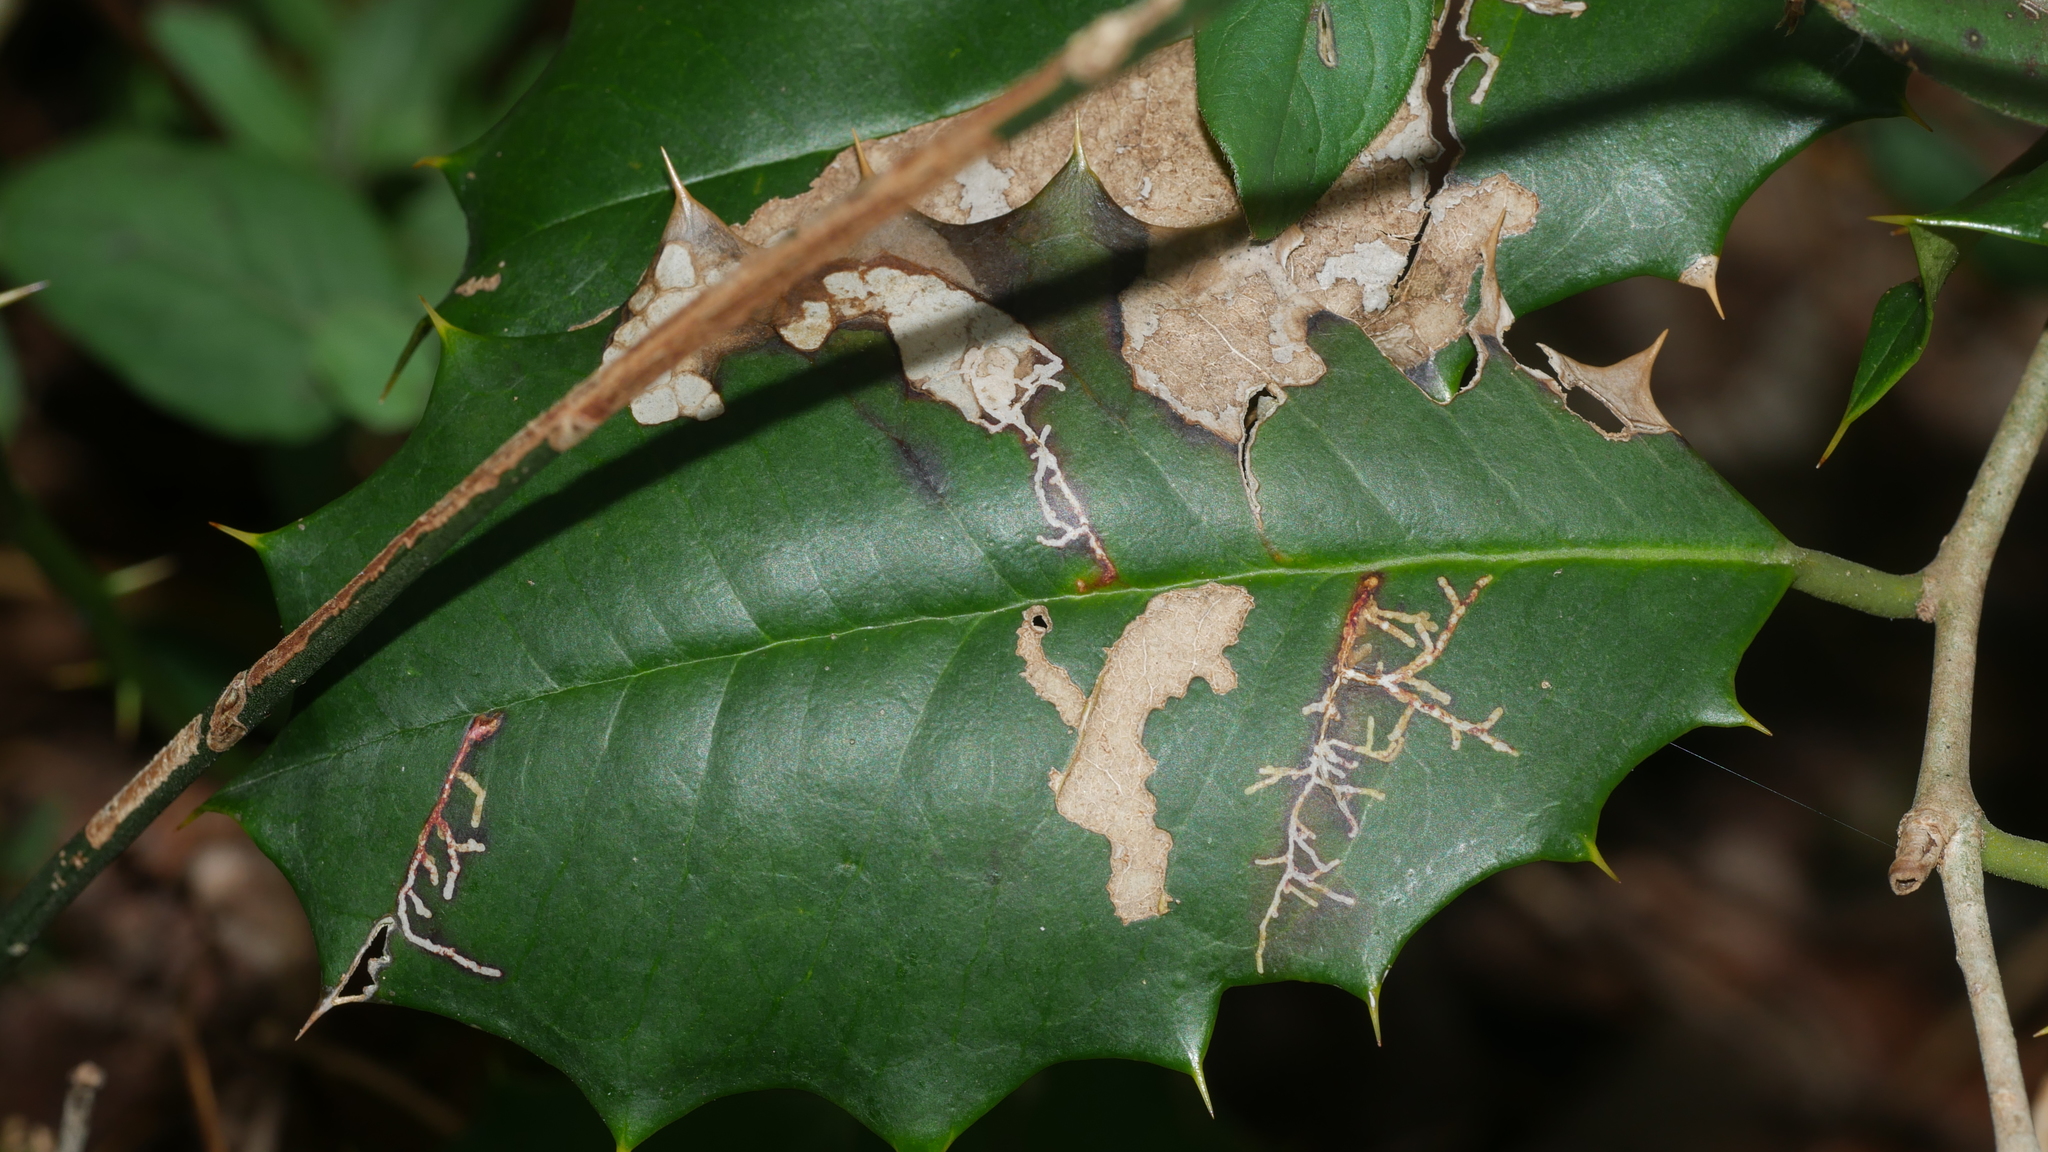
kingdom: Animalia
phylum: Arthropoda
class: Insecta
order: Lepidoptera
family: Tortricidae
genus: Rhopobota
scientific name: Rhopobota
